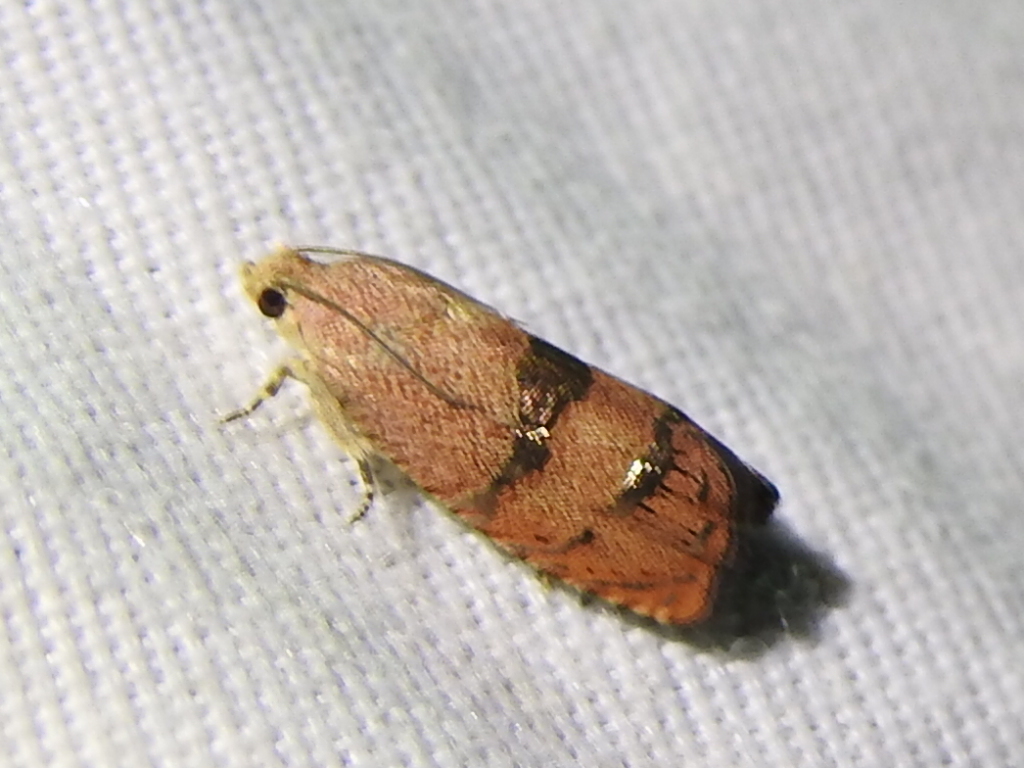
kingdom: Animalia
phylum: Arthropoda
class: Insecta
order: Lepidoptera
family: Tortricidae
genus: Cydia
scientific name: Cydia latiferreana
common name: Filbertworm moth
